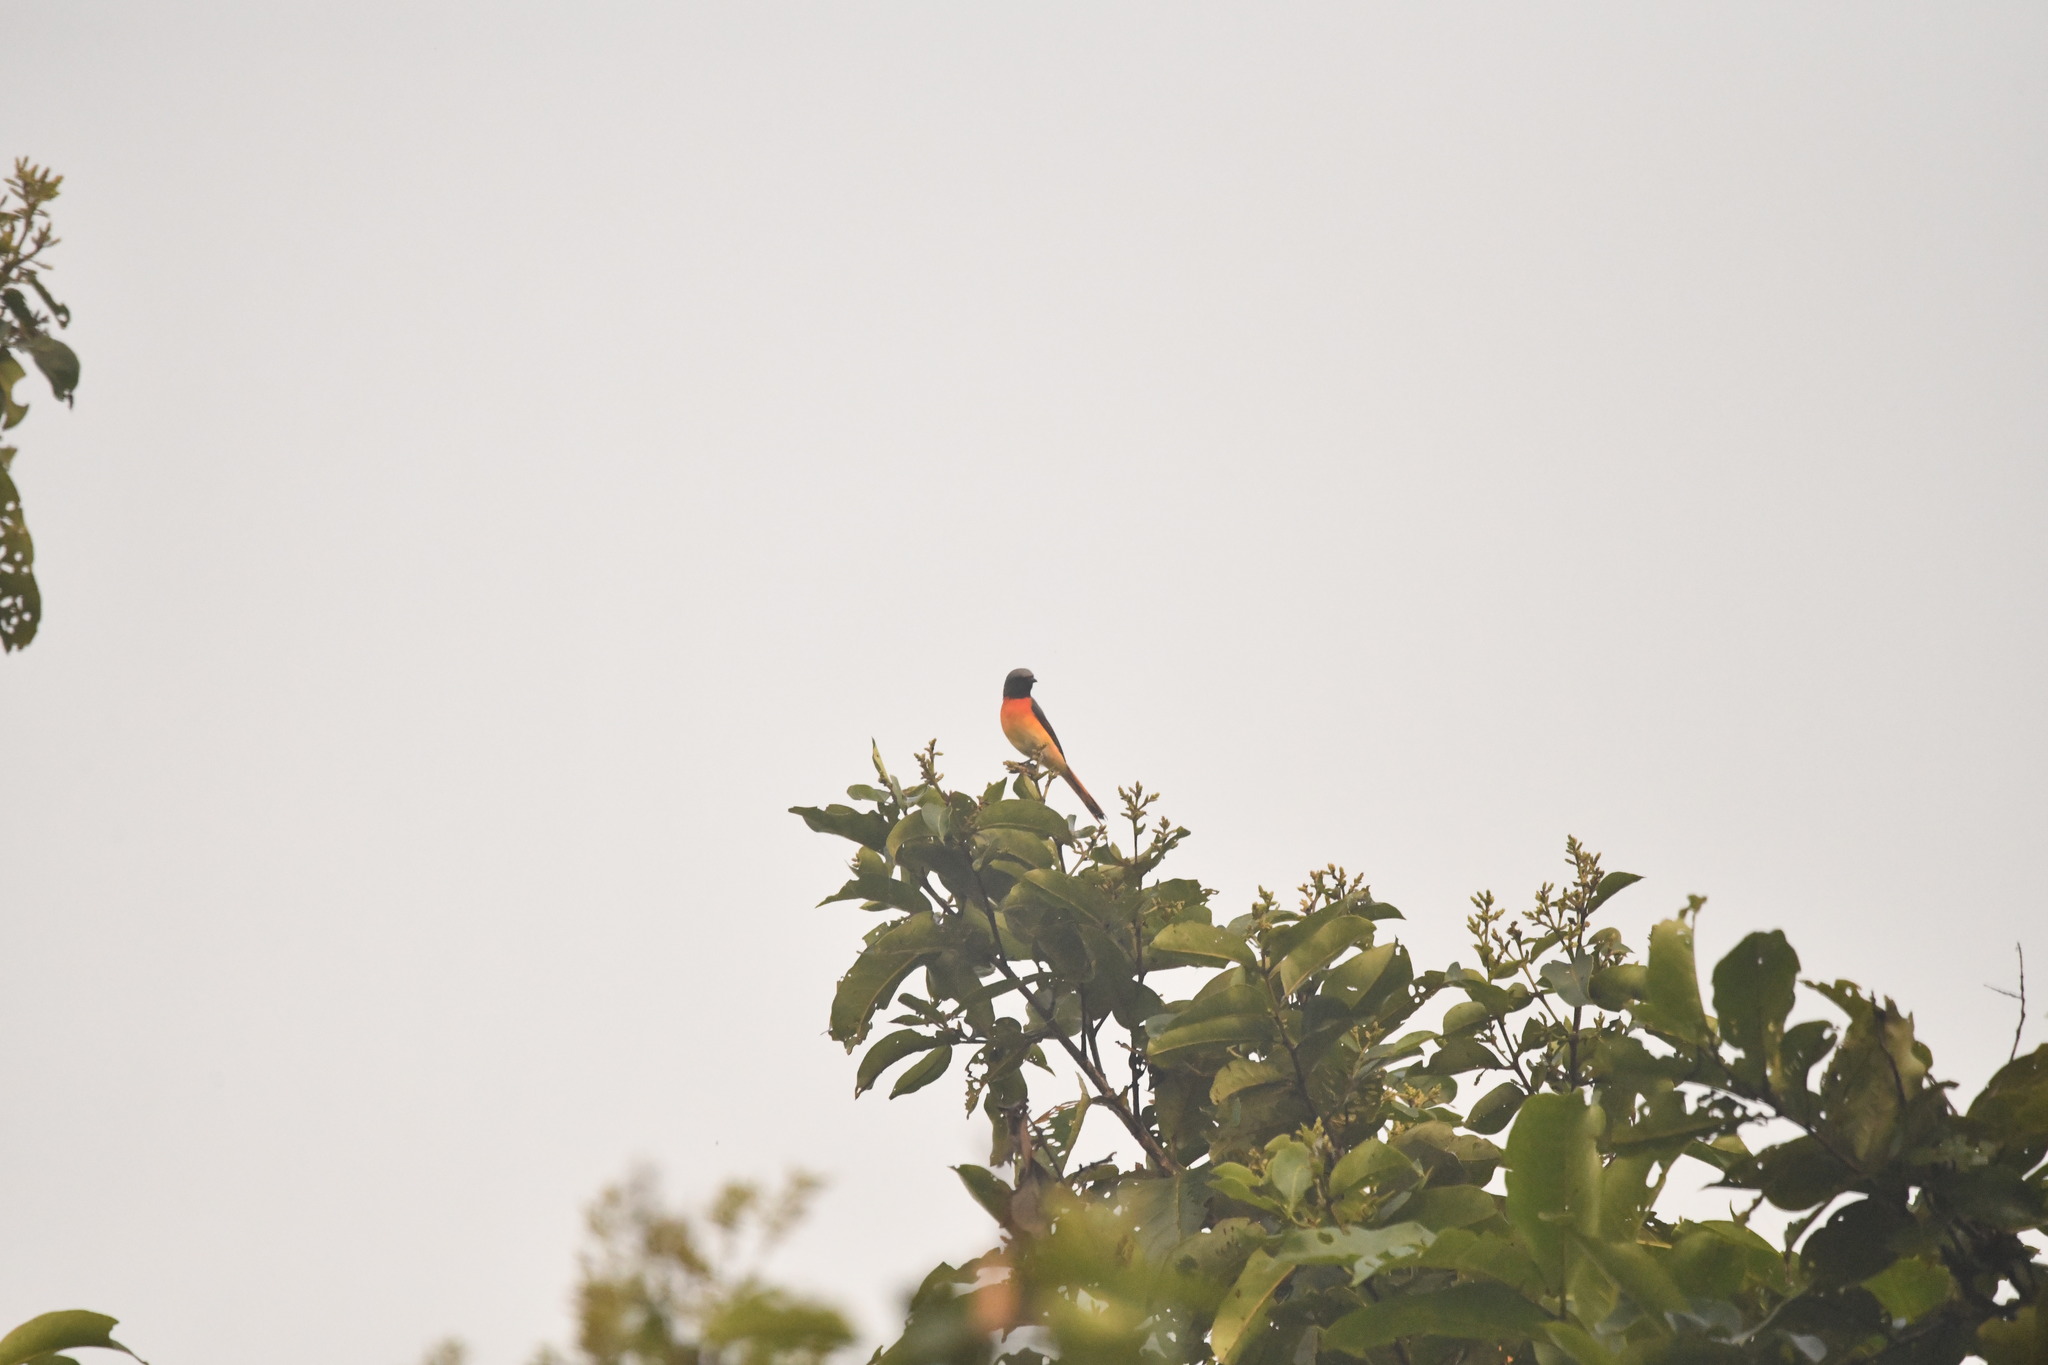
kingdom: Animalia
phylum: Chordata
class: Aves
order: Passeriformes
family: Campephagidae
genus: Pericrocotus
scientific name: Pericrocotus cinnamomeus
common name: Small minivet
